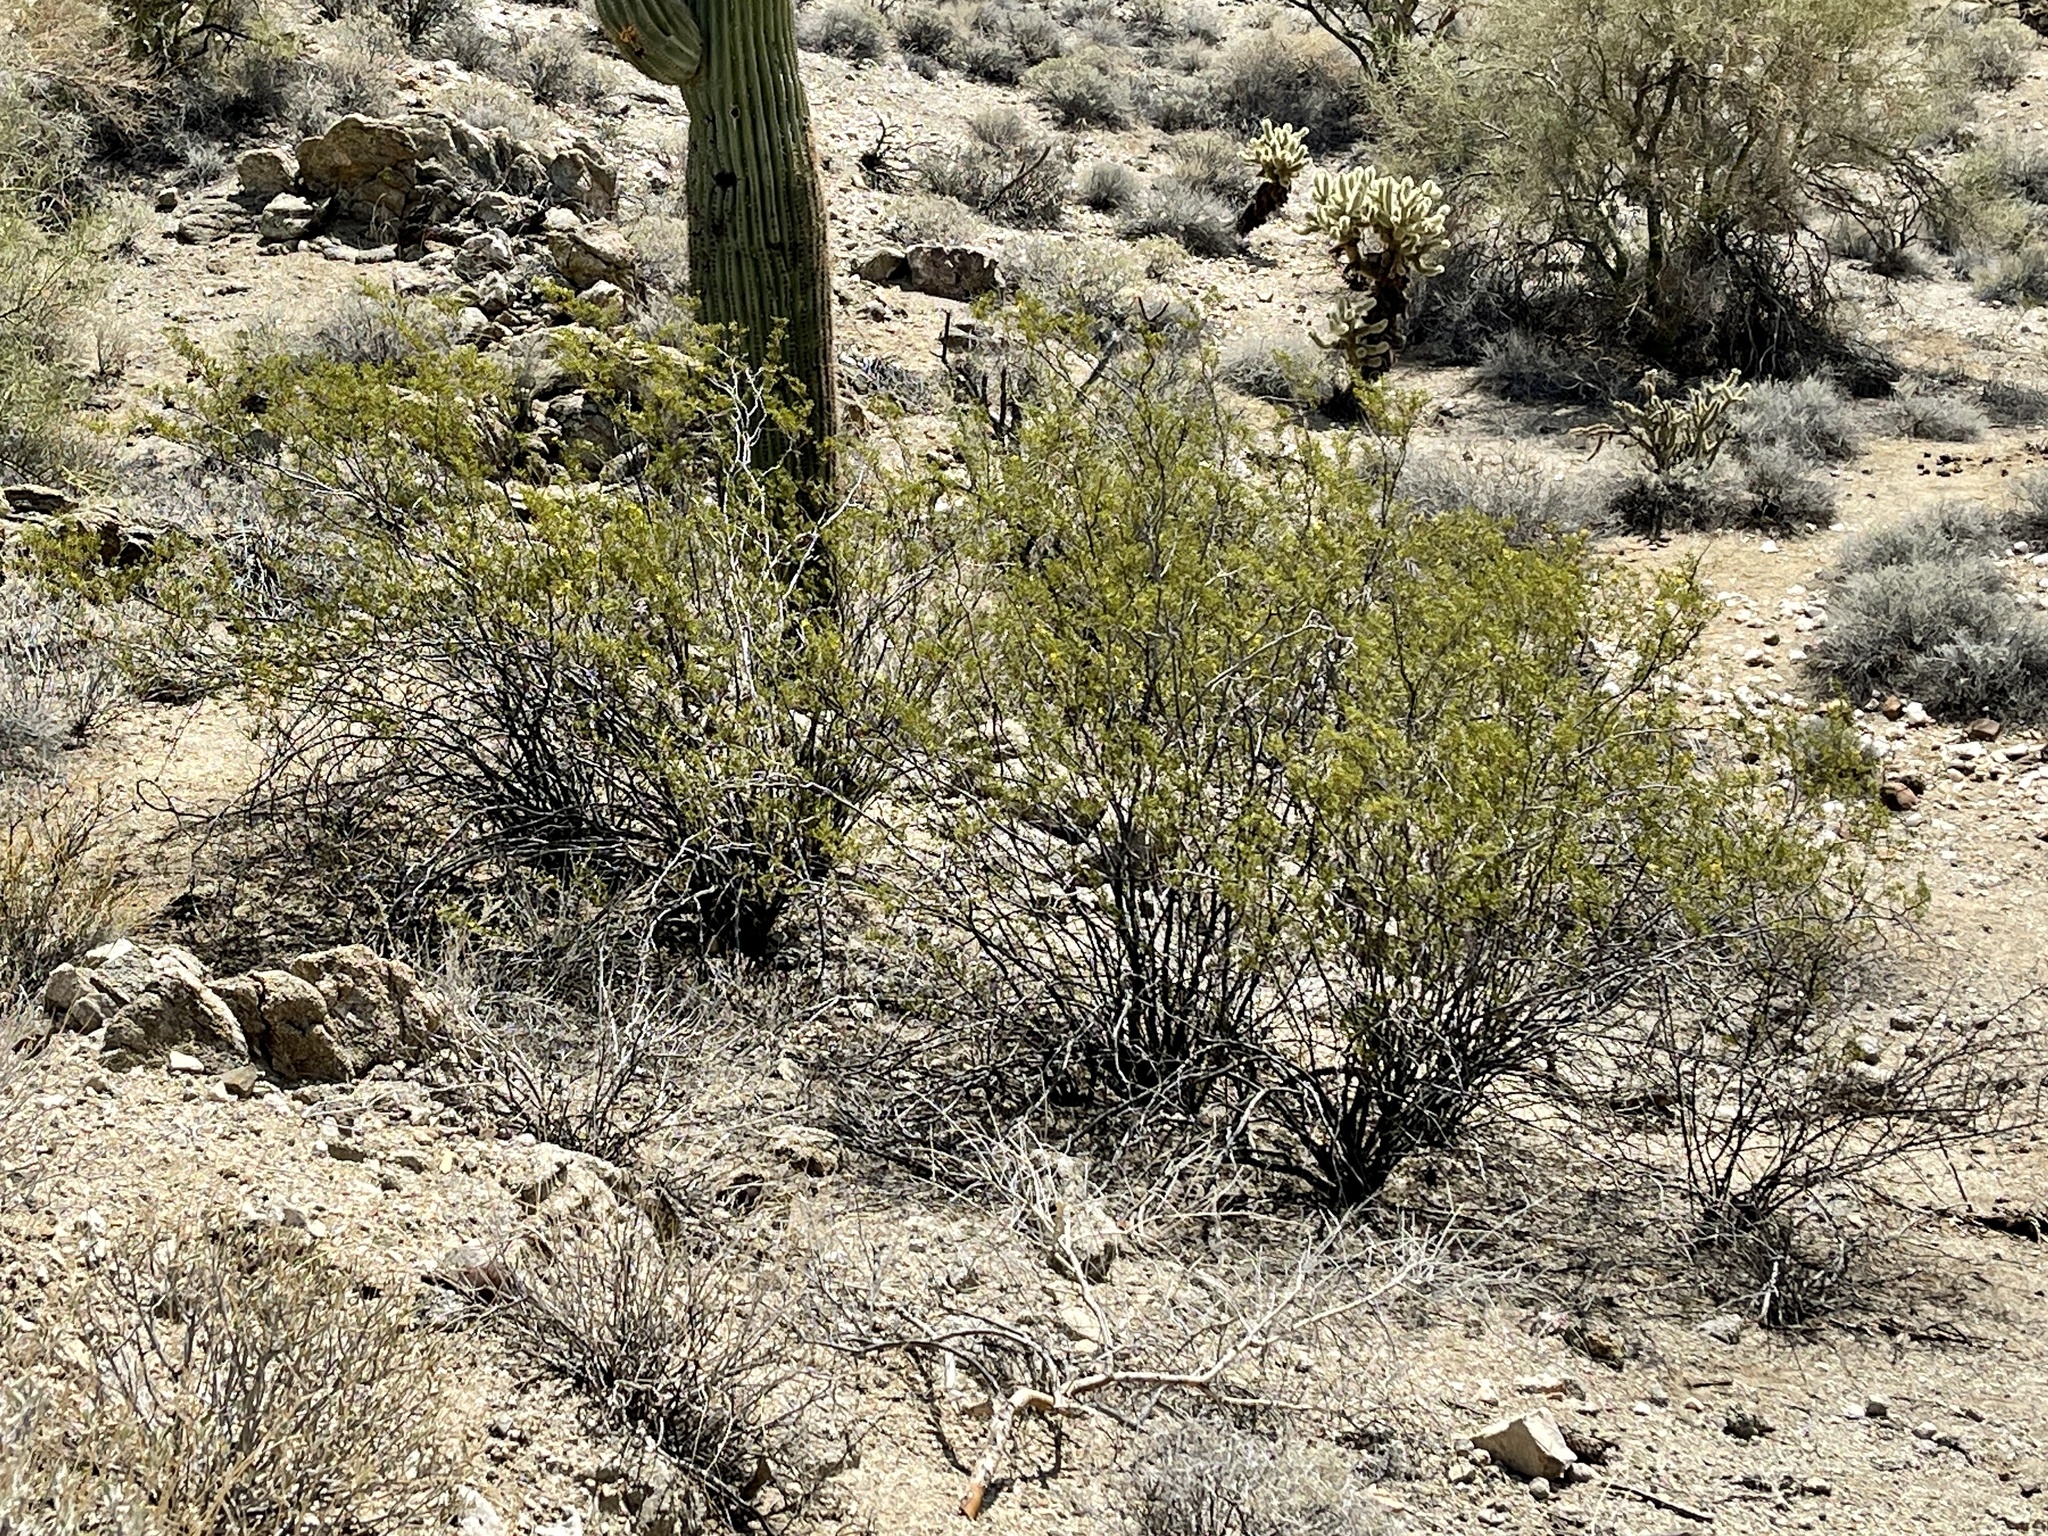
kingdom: Plantae
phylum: Tracheophyta
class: Magnoliopsida
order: Zygophyllales
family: Zygophyllaceae
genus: Larrea
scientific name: Larrea tridentata
